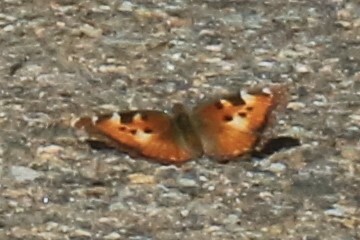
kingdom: Animalia
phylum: Arthropoda
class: Insecta
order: Lepidoptera
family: Nymphalidae
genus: Nymphalis
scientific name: Nymphalis californica
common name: California tortoiseshell
